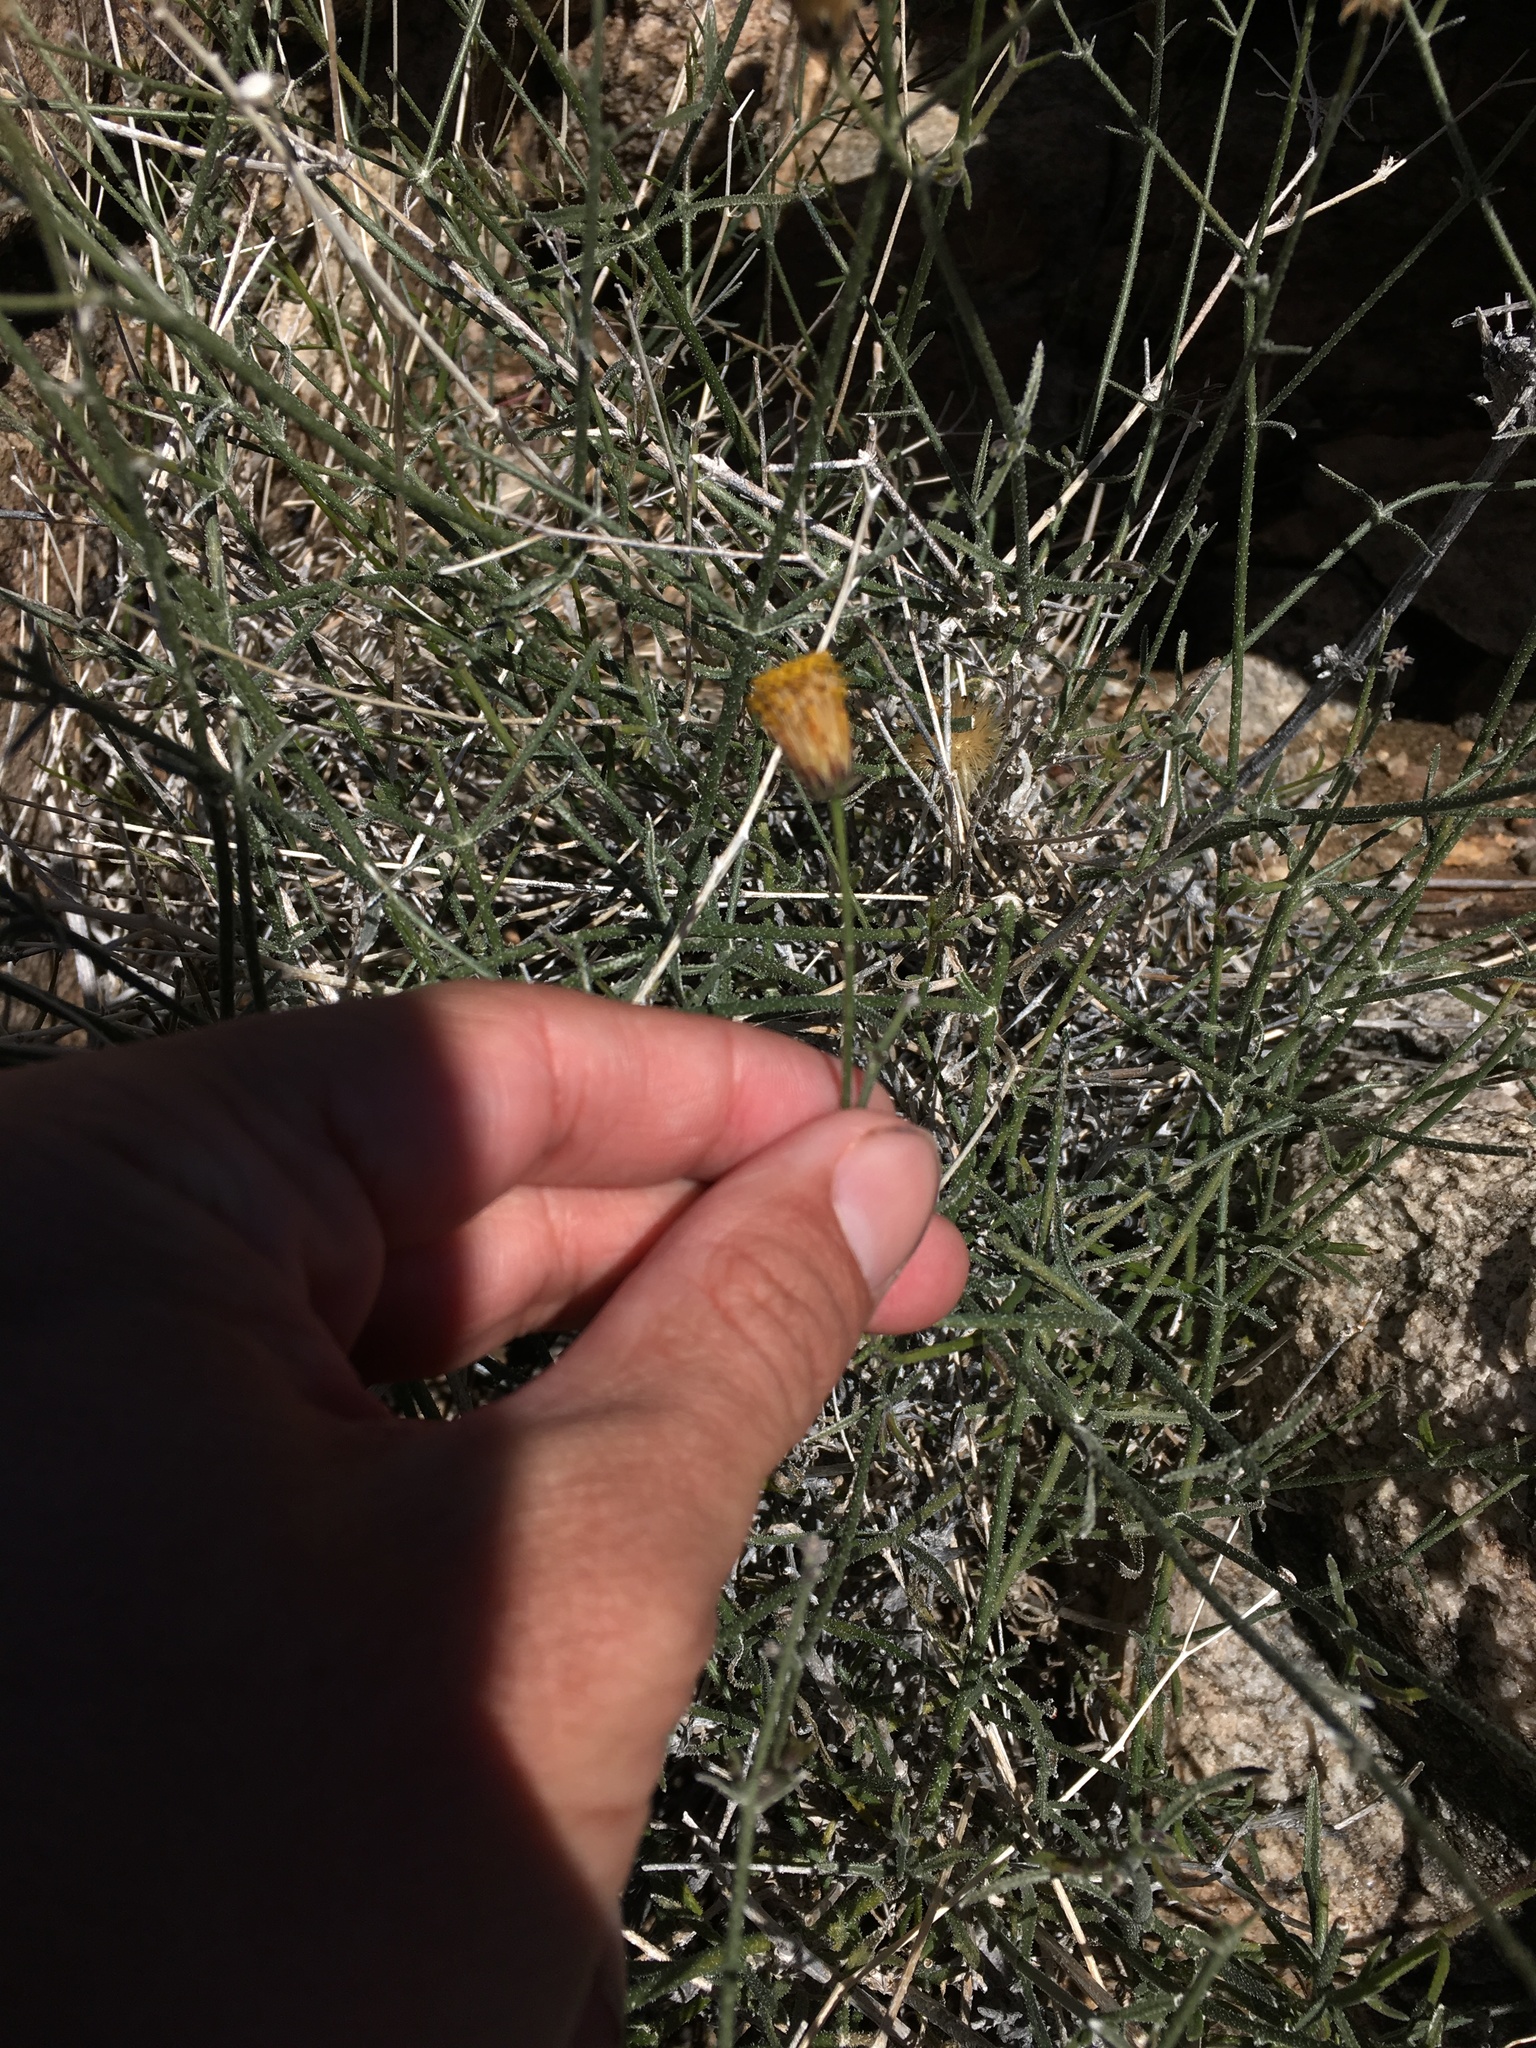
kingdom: Plantae
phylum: Tracheophyta
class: Magnoliopsida
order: Asterales
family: Asteraceae
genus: Bebbia
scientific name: Bebbia juncea
